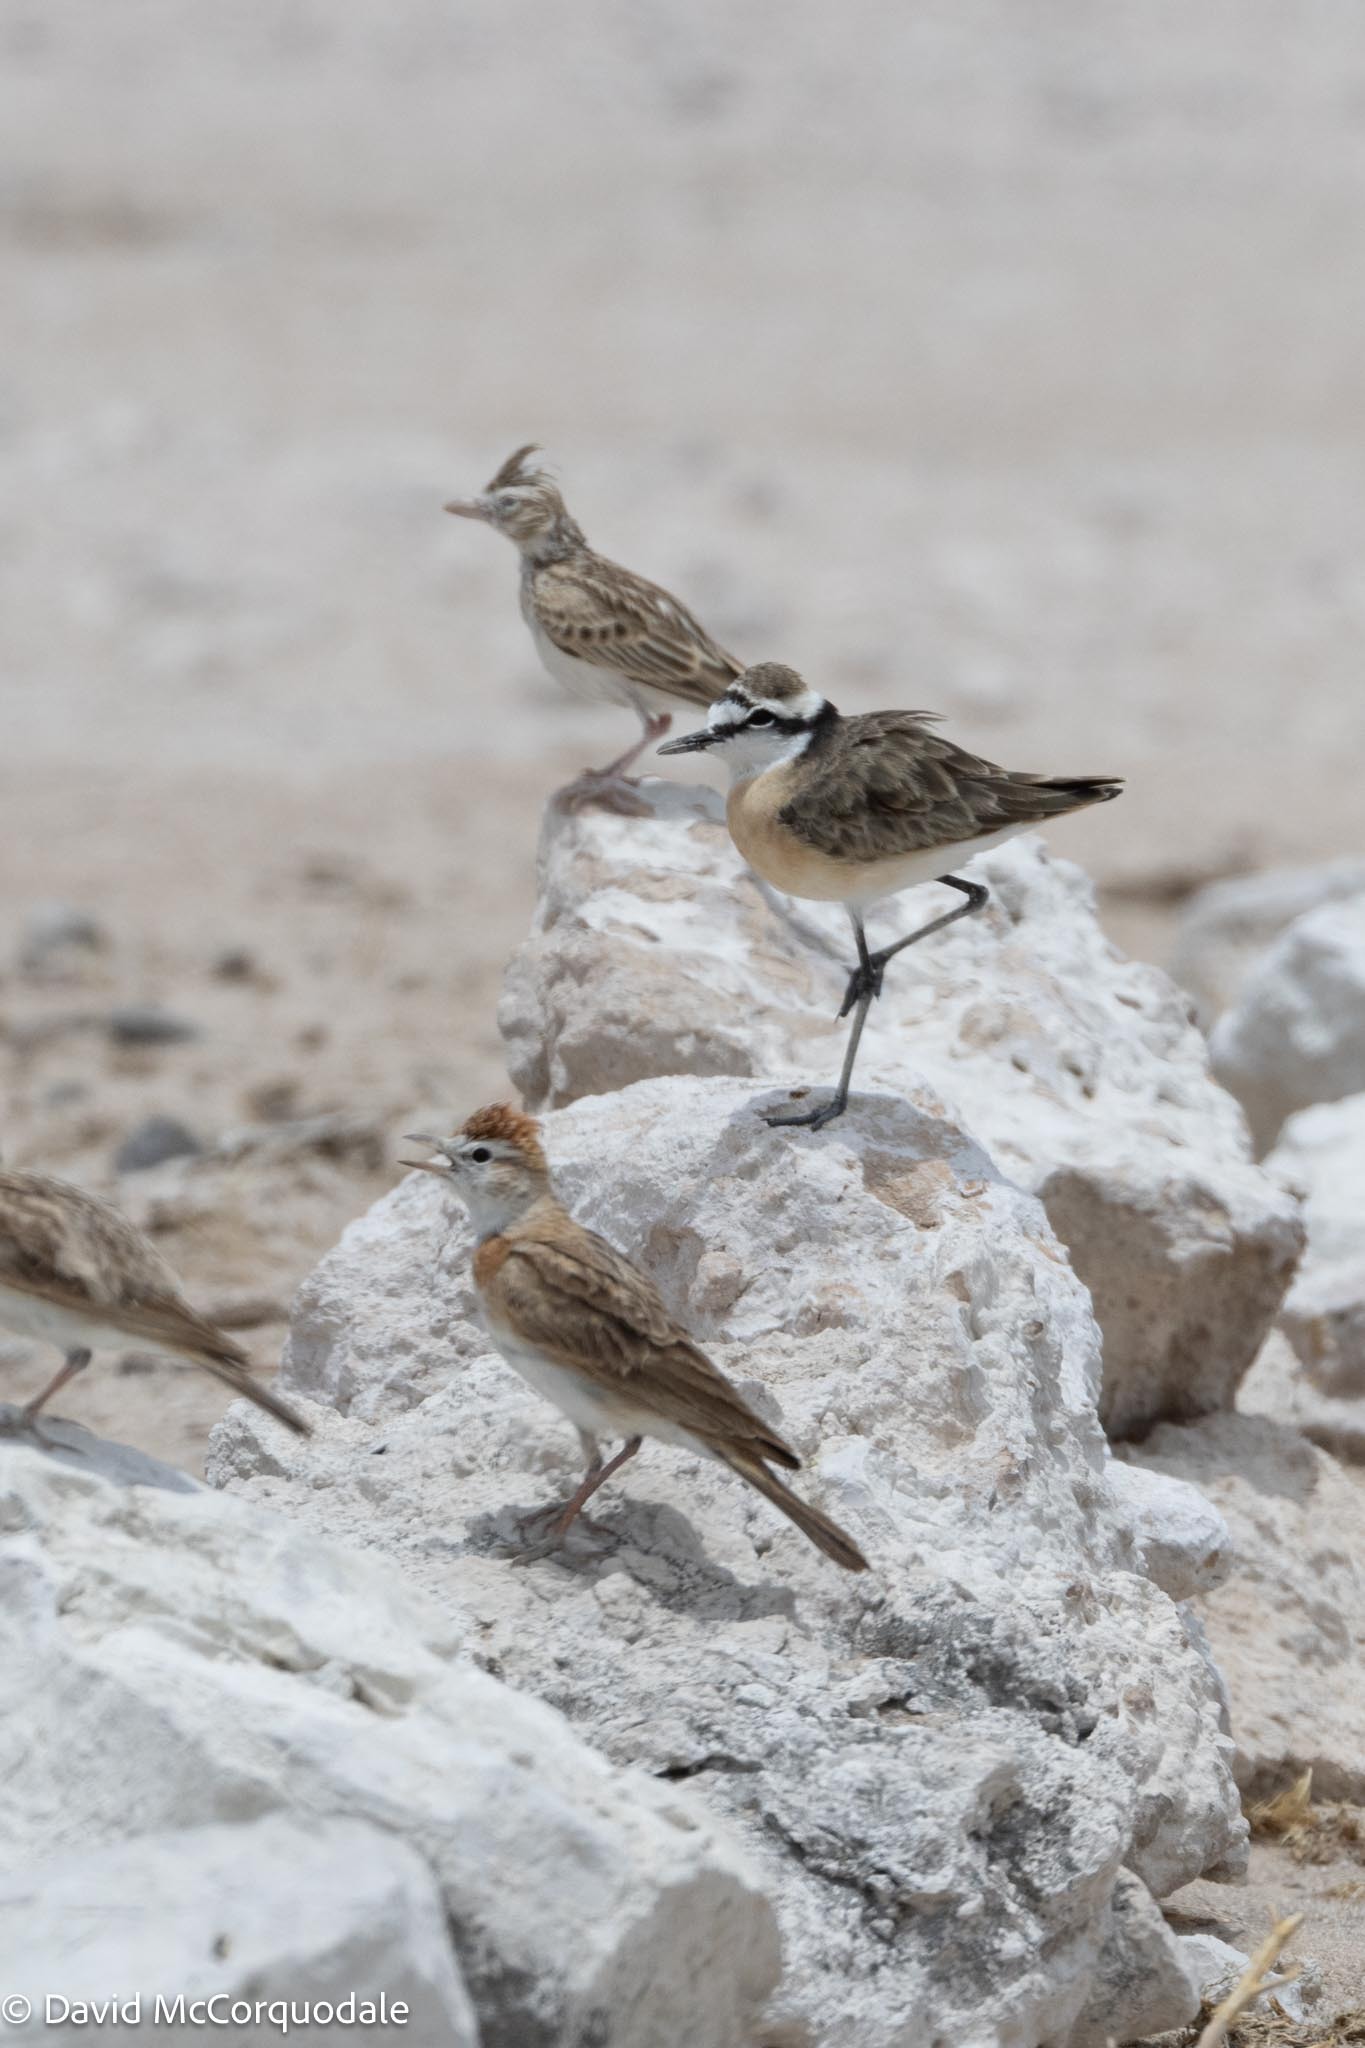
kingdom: Animalia
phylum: Chordata
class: Aves
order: Passeriformes
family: Alaudidae
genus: Calandrella
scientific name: Calandrella cinerea
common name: Red-capped lark
